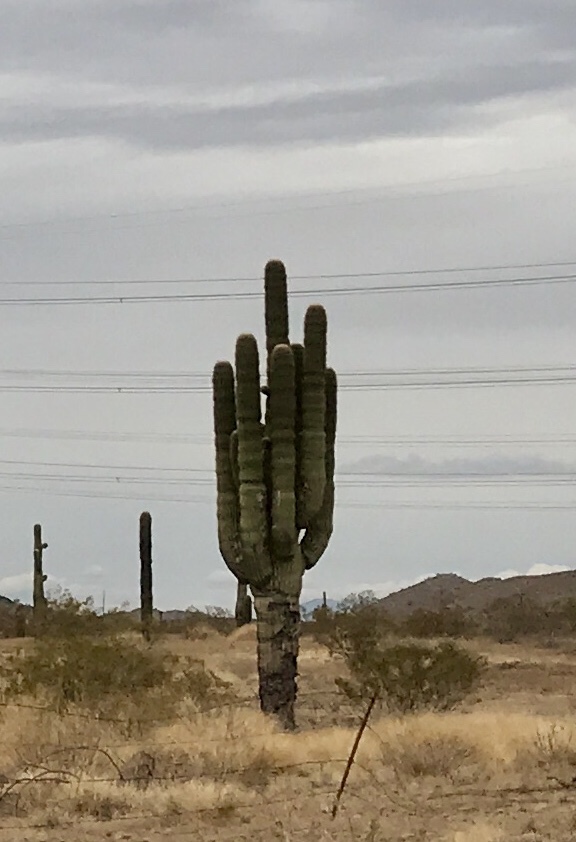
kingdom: Plantae
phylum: Tracheophyta
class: Magnoliopsida
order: Caryophyllales
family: Cactaceae
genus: Carnegiea
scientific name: Carnegiea gigantea
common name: Saguaro
